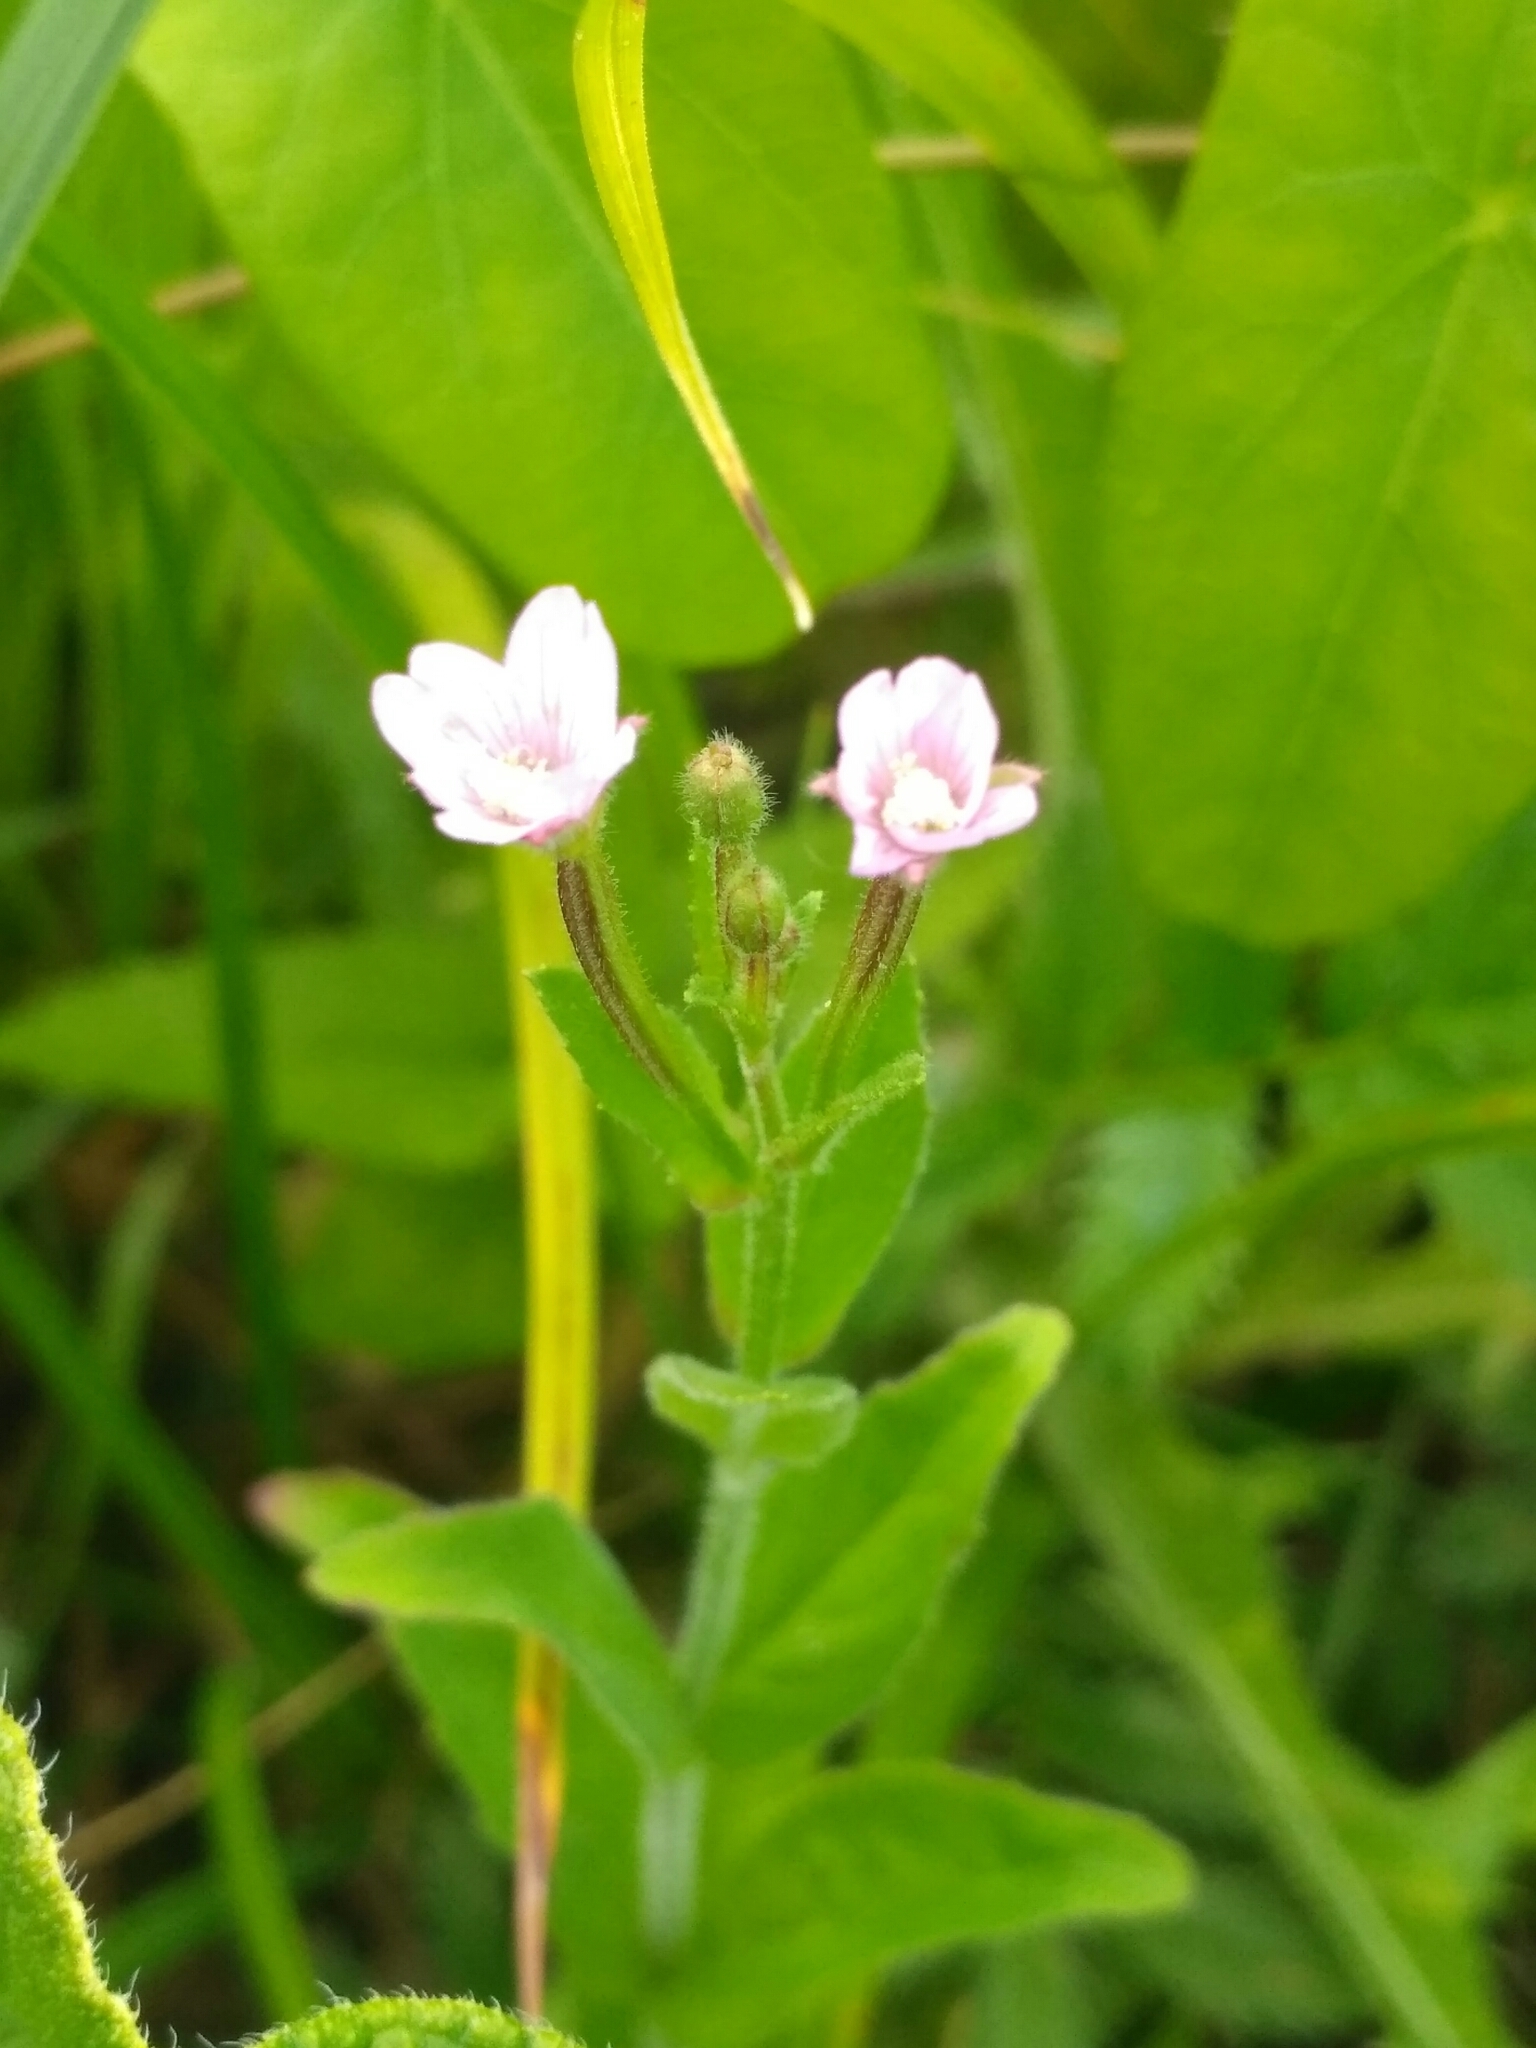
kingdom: Plantae
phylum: Tracheophyta
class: Magnoliopsida
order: Myrtales
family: Onagraceae
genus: Epilobium
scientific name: Epilobium palustre
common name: Marsh willowherb
